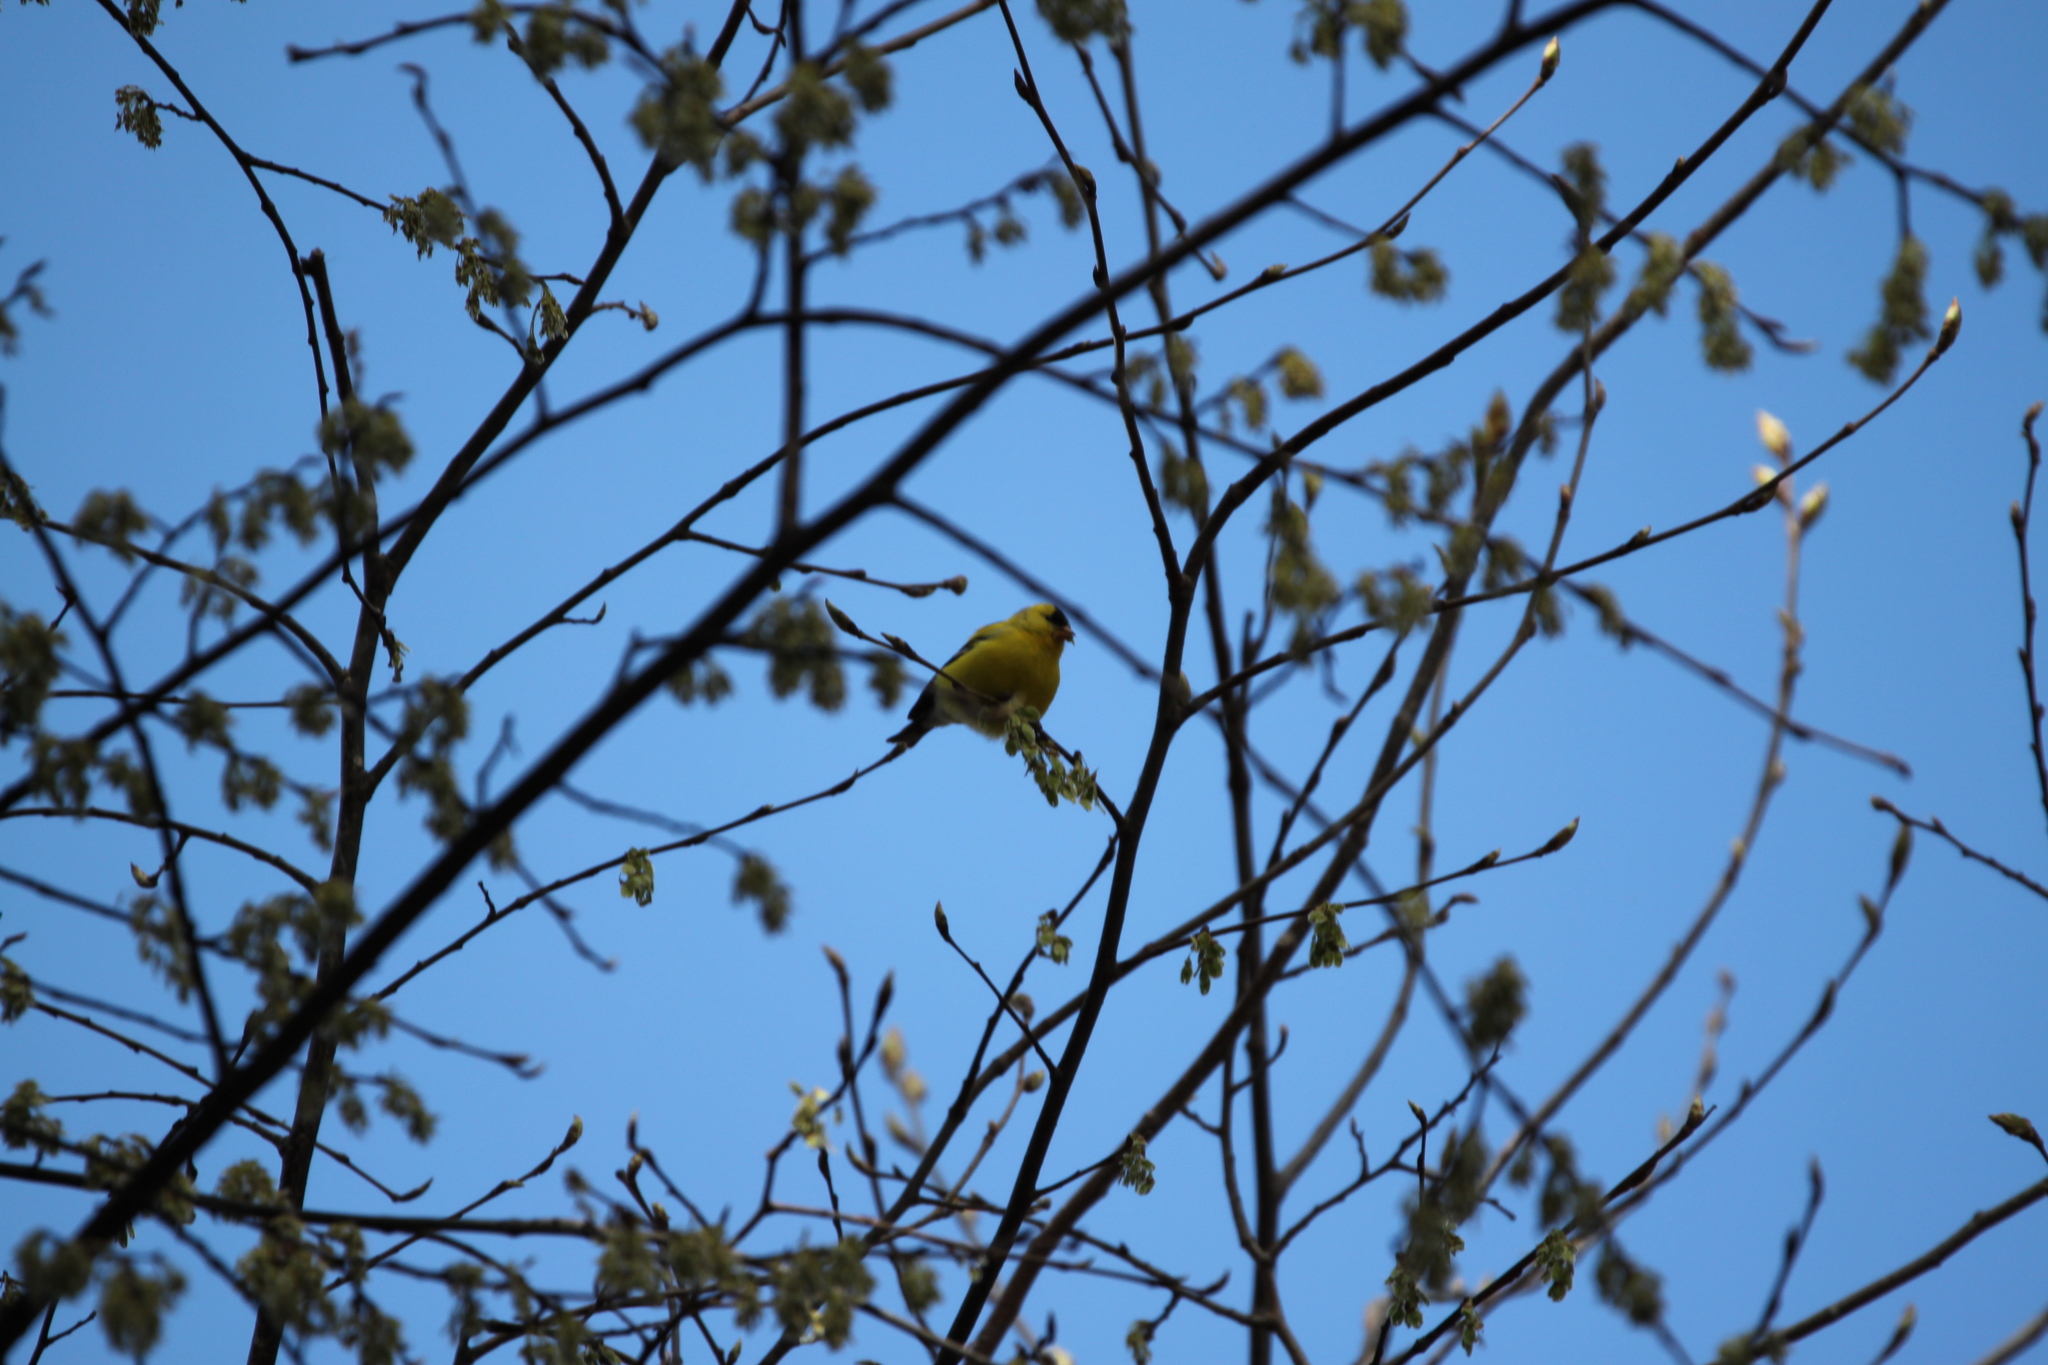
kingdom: Animalia
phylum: Chordata
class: Aves
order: Passeriformes
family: Fringillidae
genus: Spinus
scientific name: Spinus tristis
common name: American goldfinch
